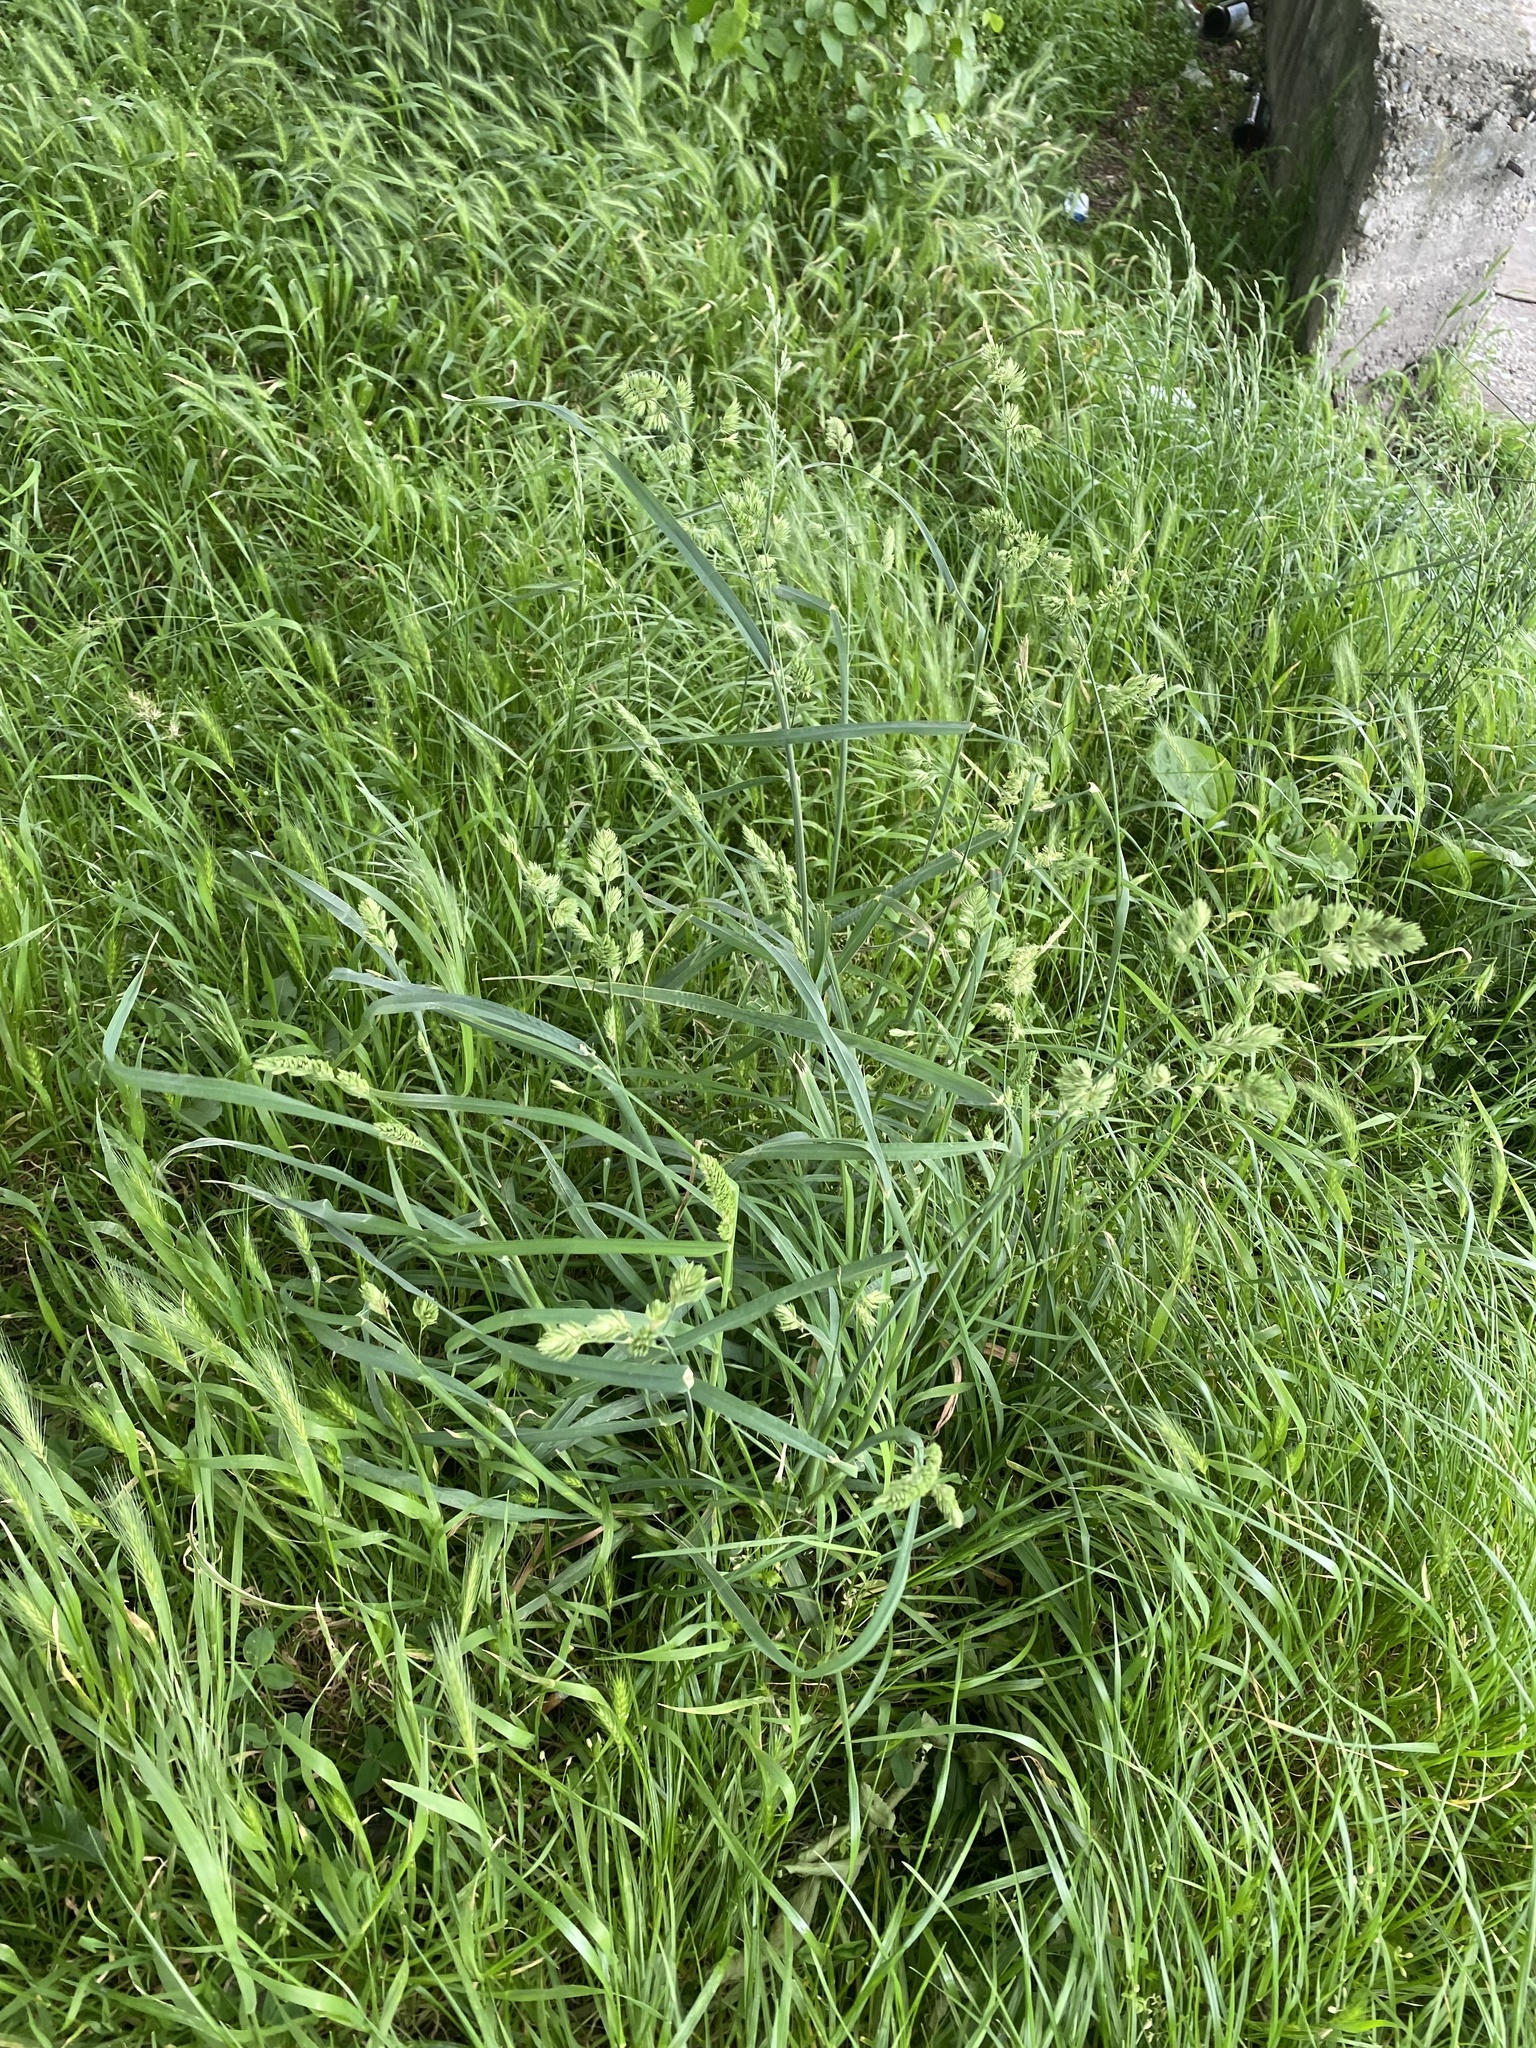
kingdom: Plantae
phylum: Tracheophyta
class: Liliopsida
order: Poales
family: Poaceae
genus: Dactylis
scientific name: Dactylis glomerata
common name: Orchardgrass
